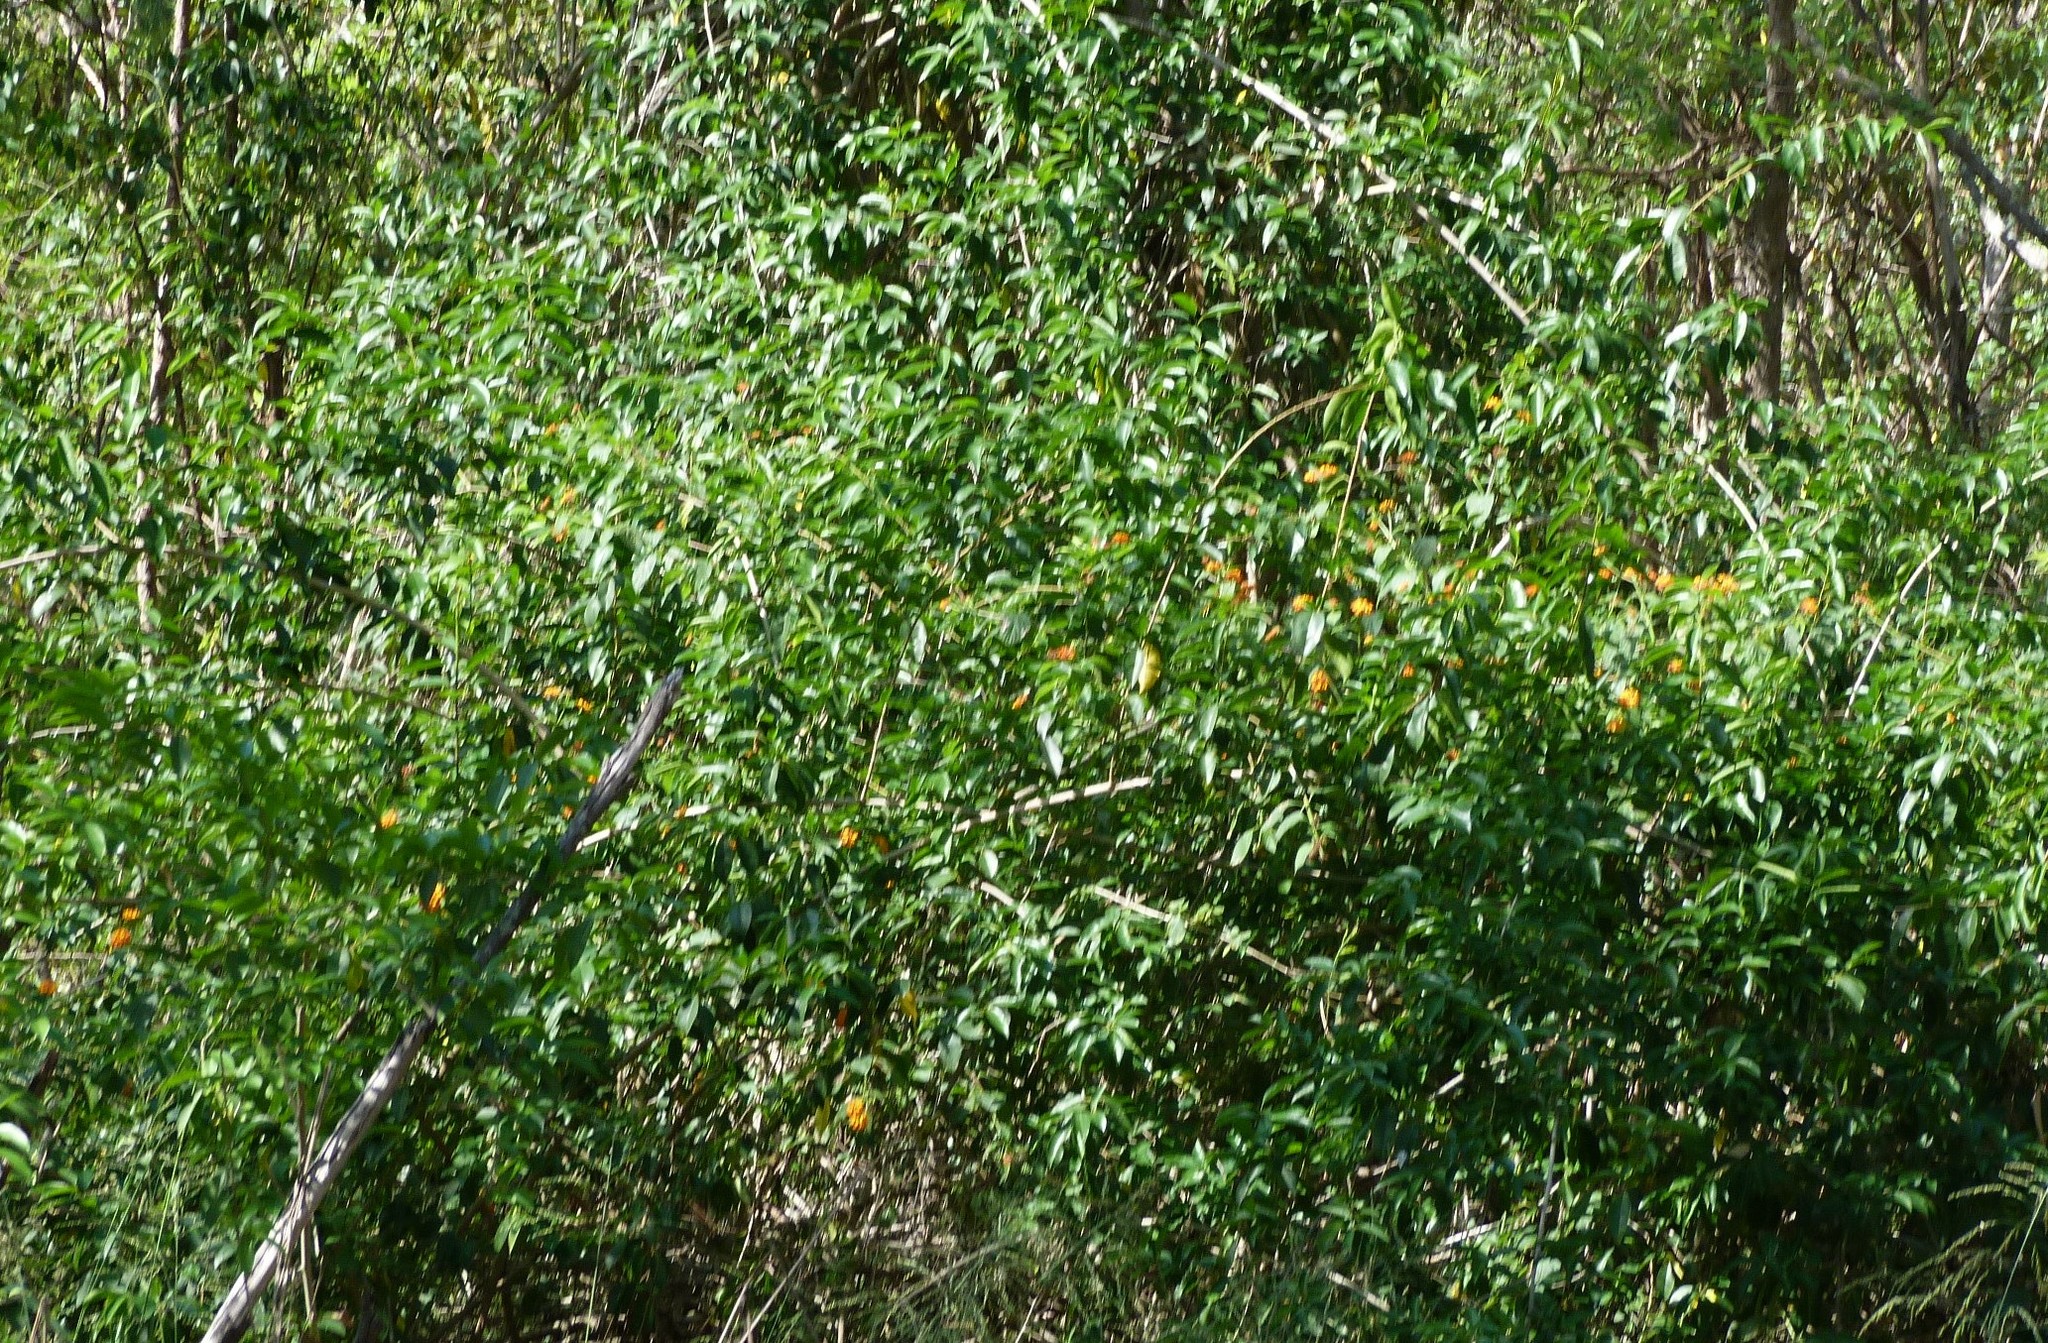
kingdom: Plantae
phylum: Tracheophyta
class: Magnoliopsida
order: Lamiales
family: Verbenaceae
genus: Lantana
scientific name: Lantana camara
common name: Lantana
